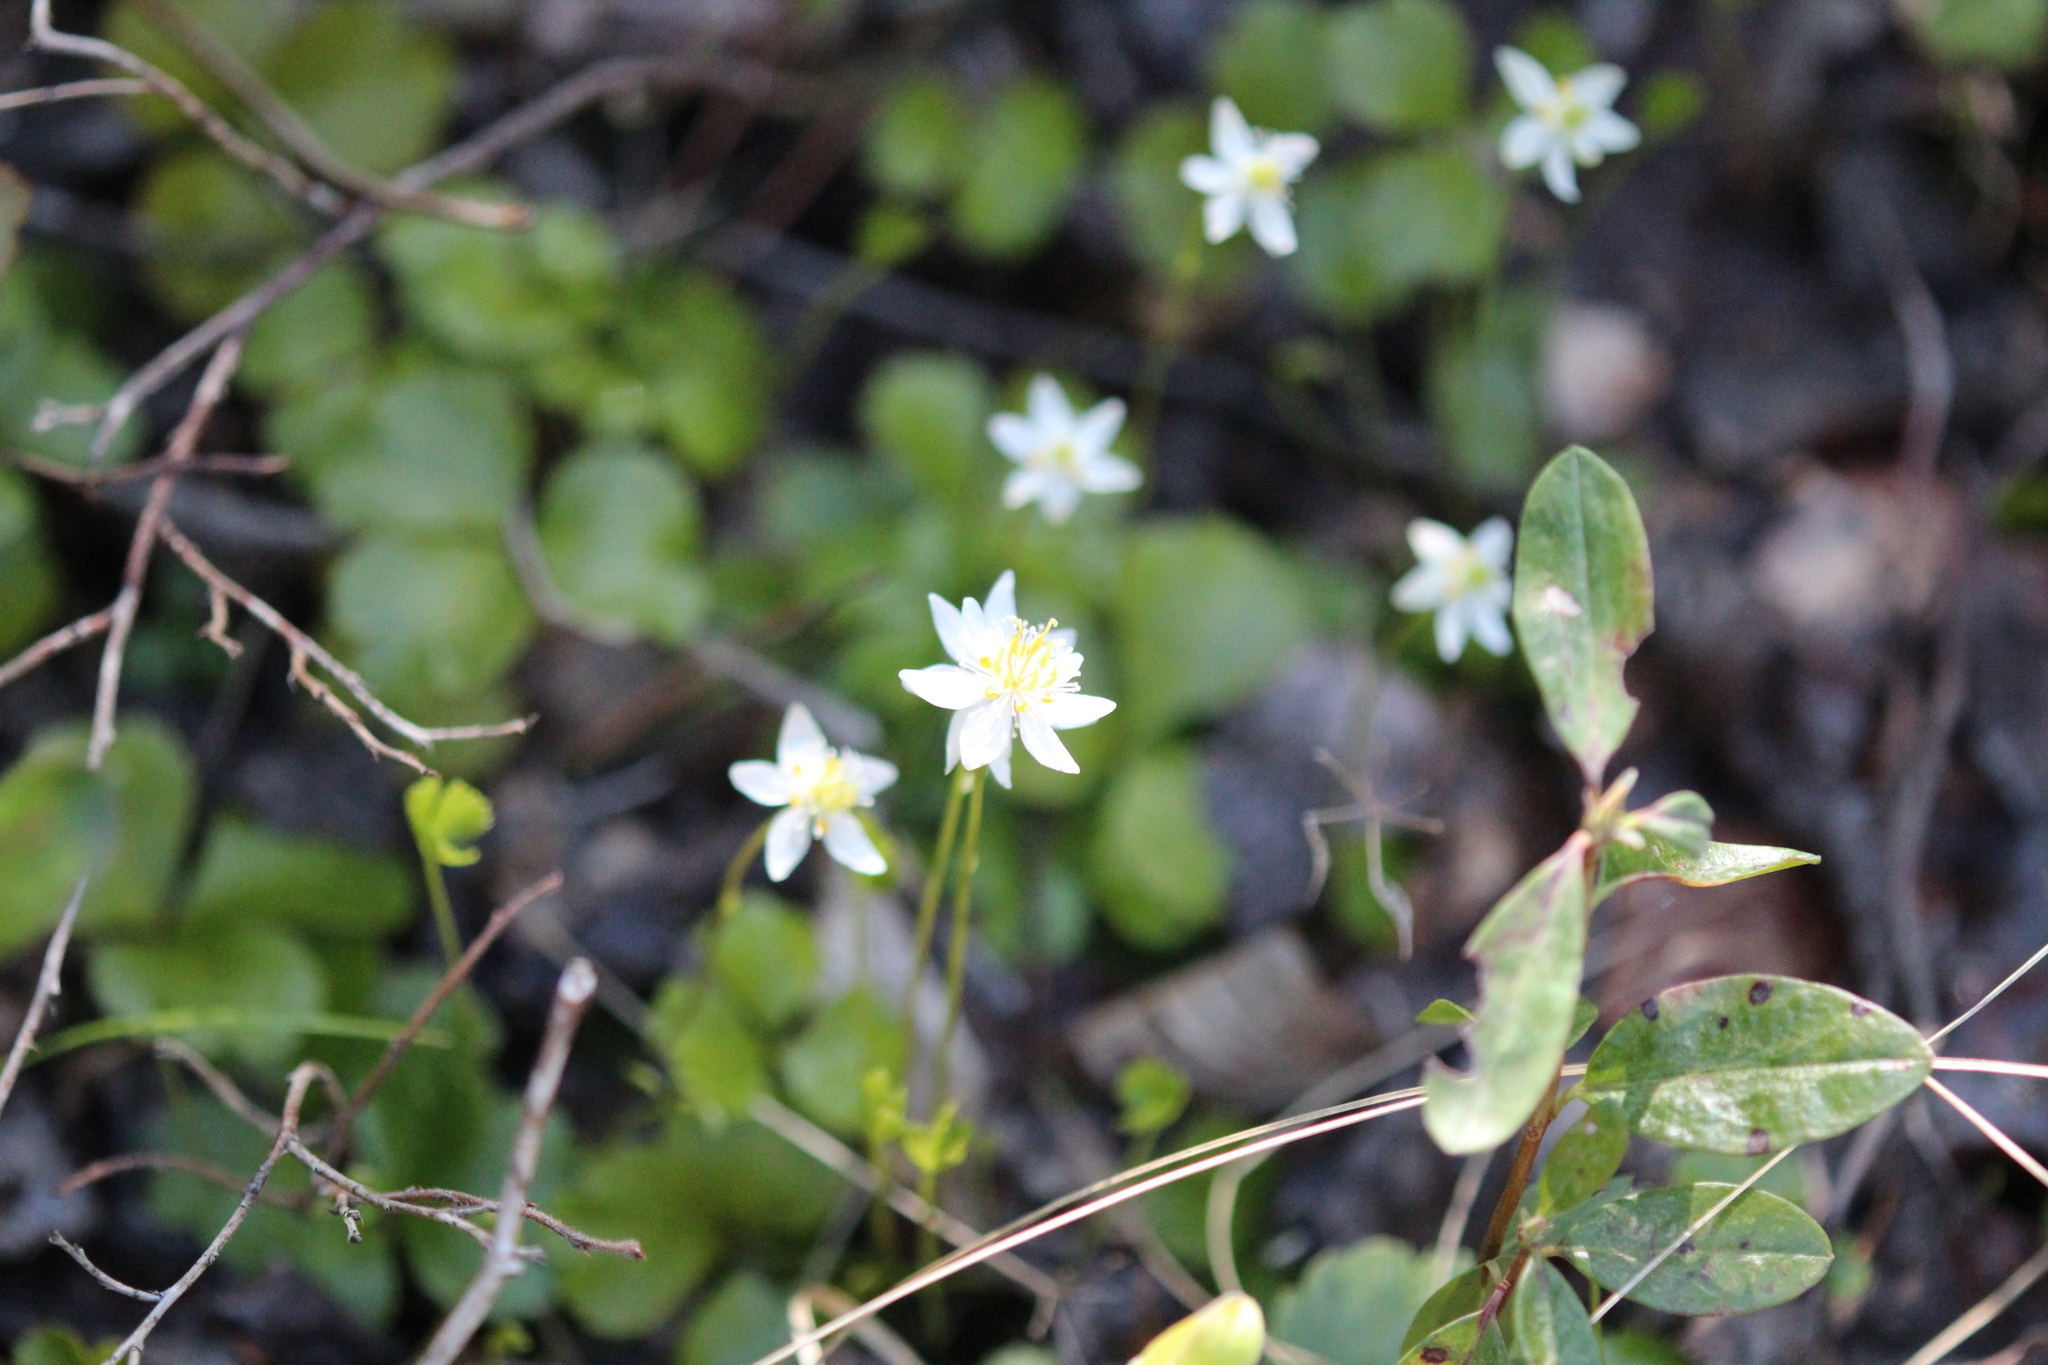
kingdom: Plantae
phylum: Tracheophyta
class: Magnoliopsida
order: Ranunculales
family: Ranunculaceae
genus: Coptis
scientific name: Coptis trifolia
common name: Canker-root
